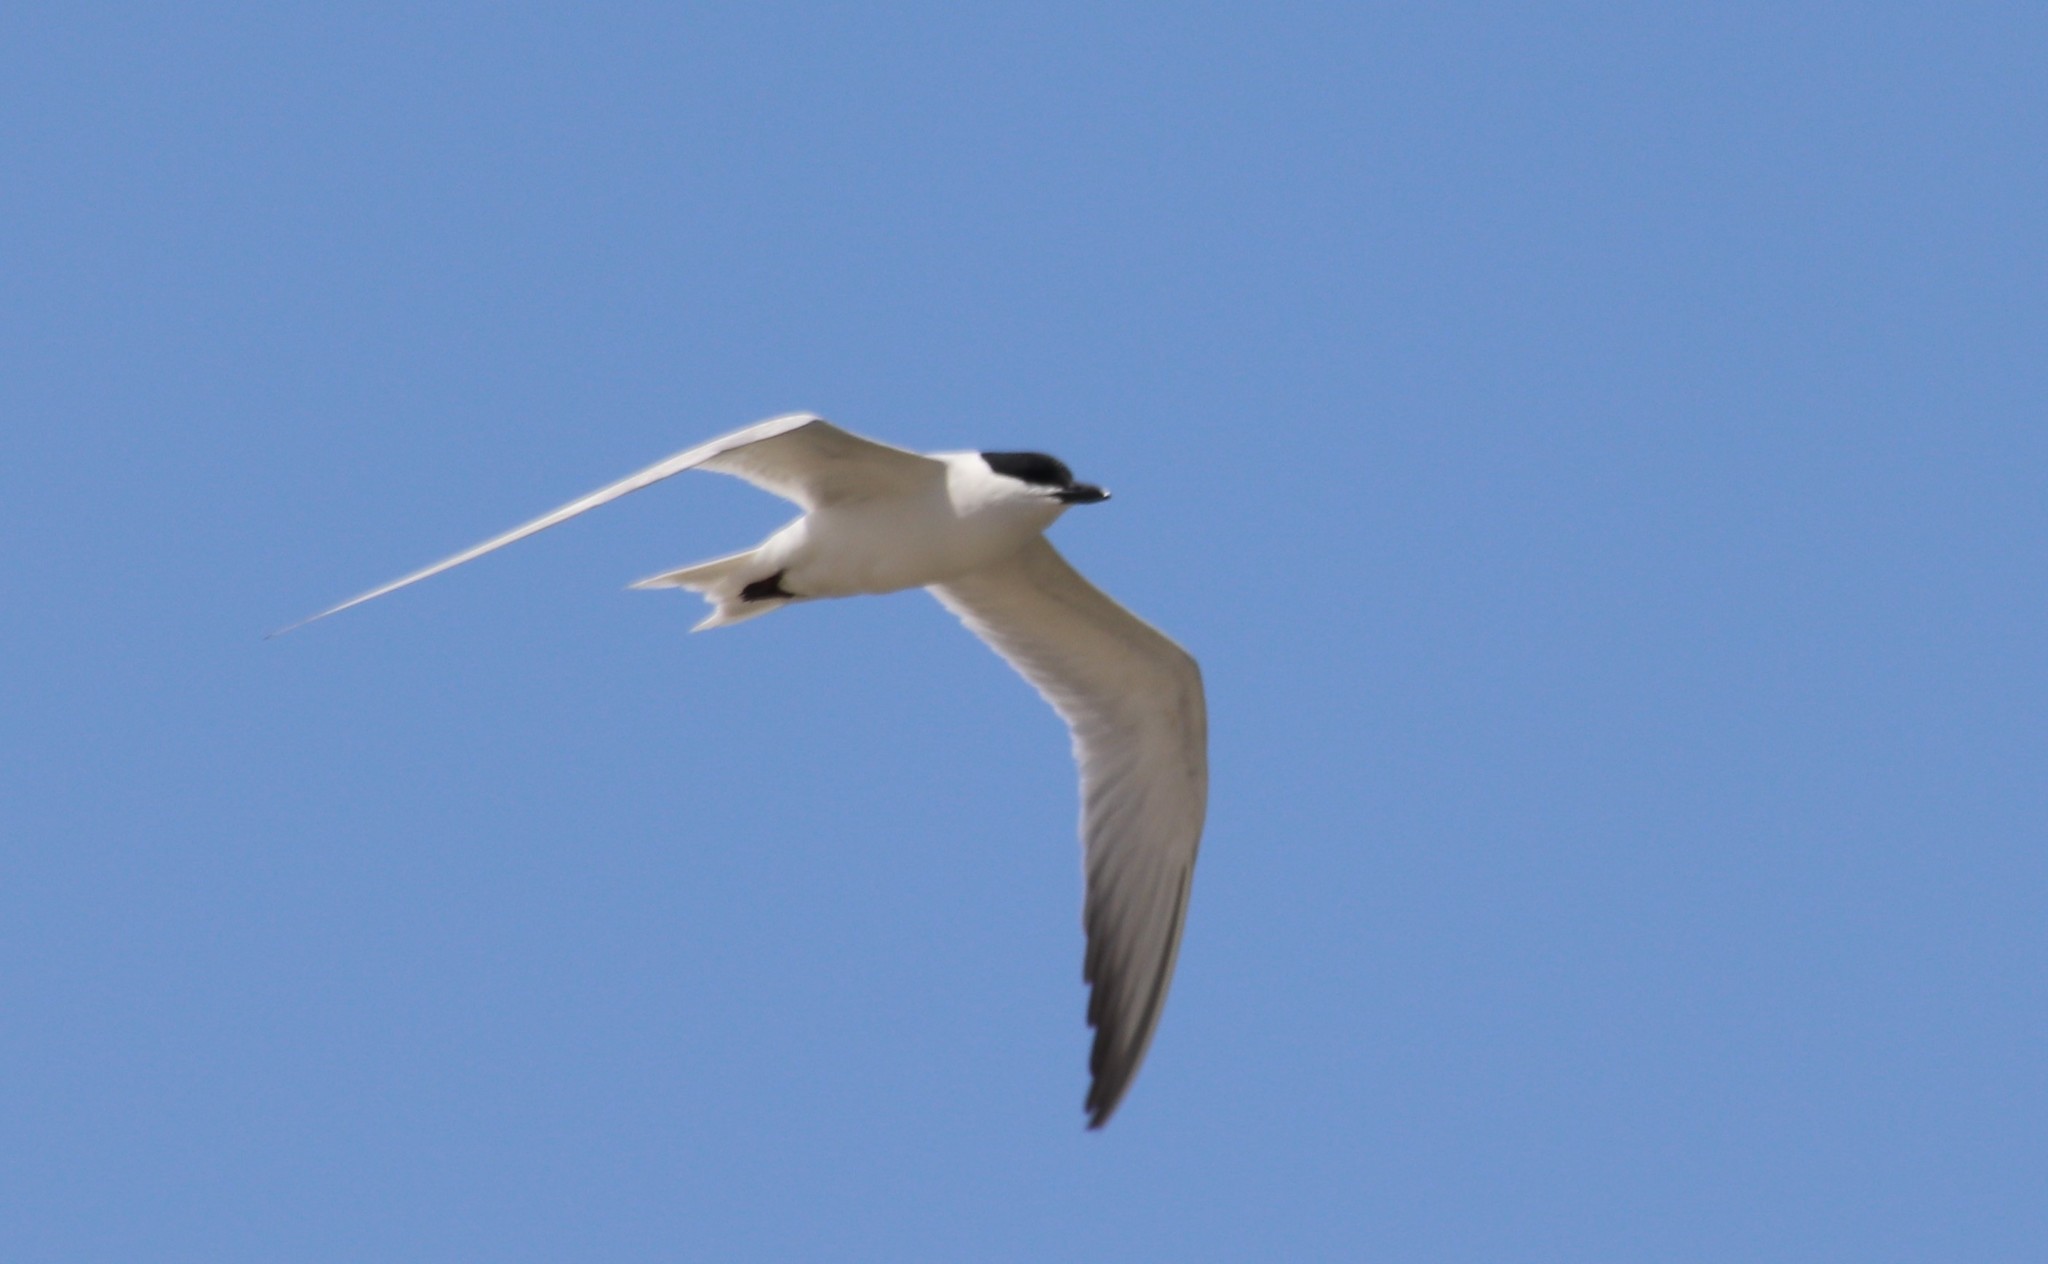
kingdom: Animalia
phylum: Chordata
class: Aves
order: Charadriiformes
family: Laridae
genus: Gelochelidon
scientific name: Gelochelidon nilotica
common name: Gull-billed tern
